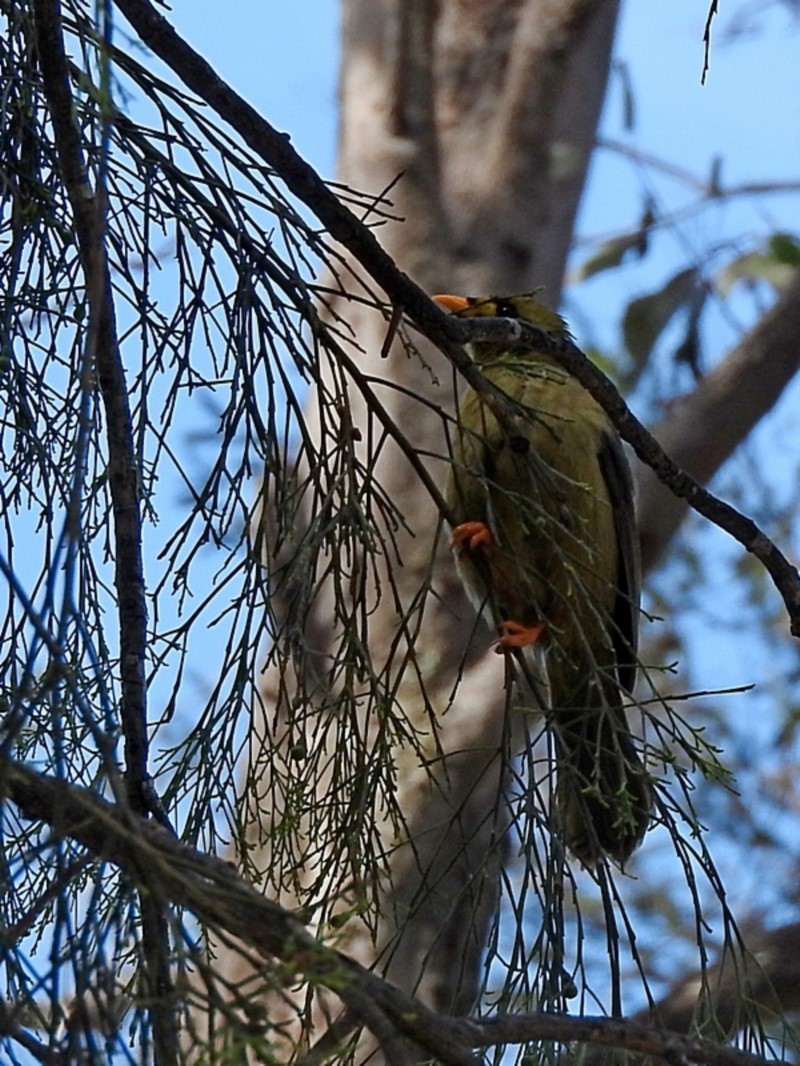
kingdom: Animalia
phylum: Chordata
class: Aves
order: Passeriformes
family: Meliphagidae
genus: Manorina
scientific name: Manorina melanophrys
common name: Bell miner
